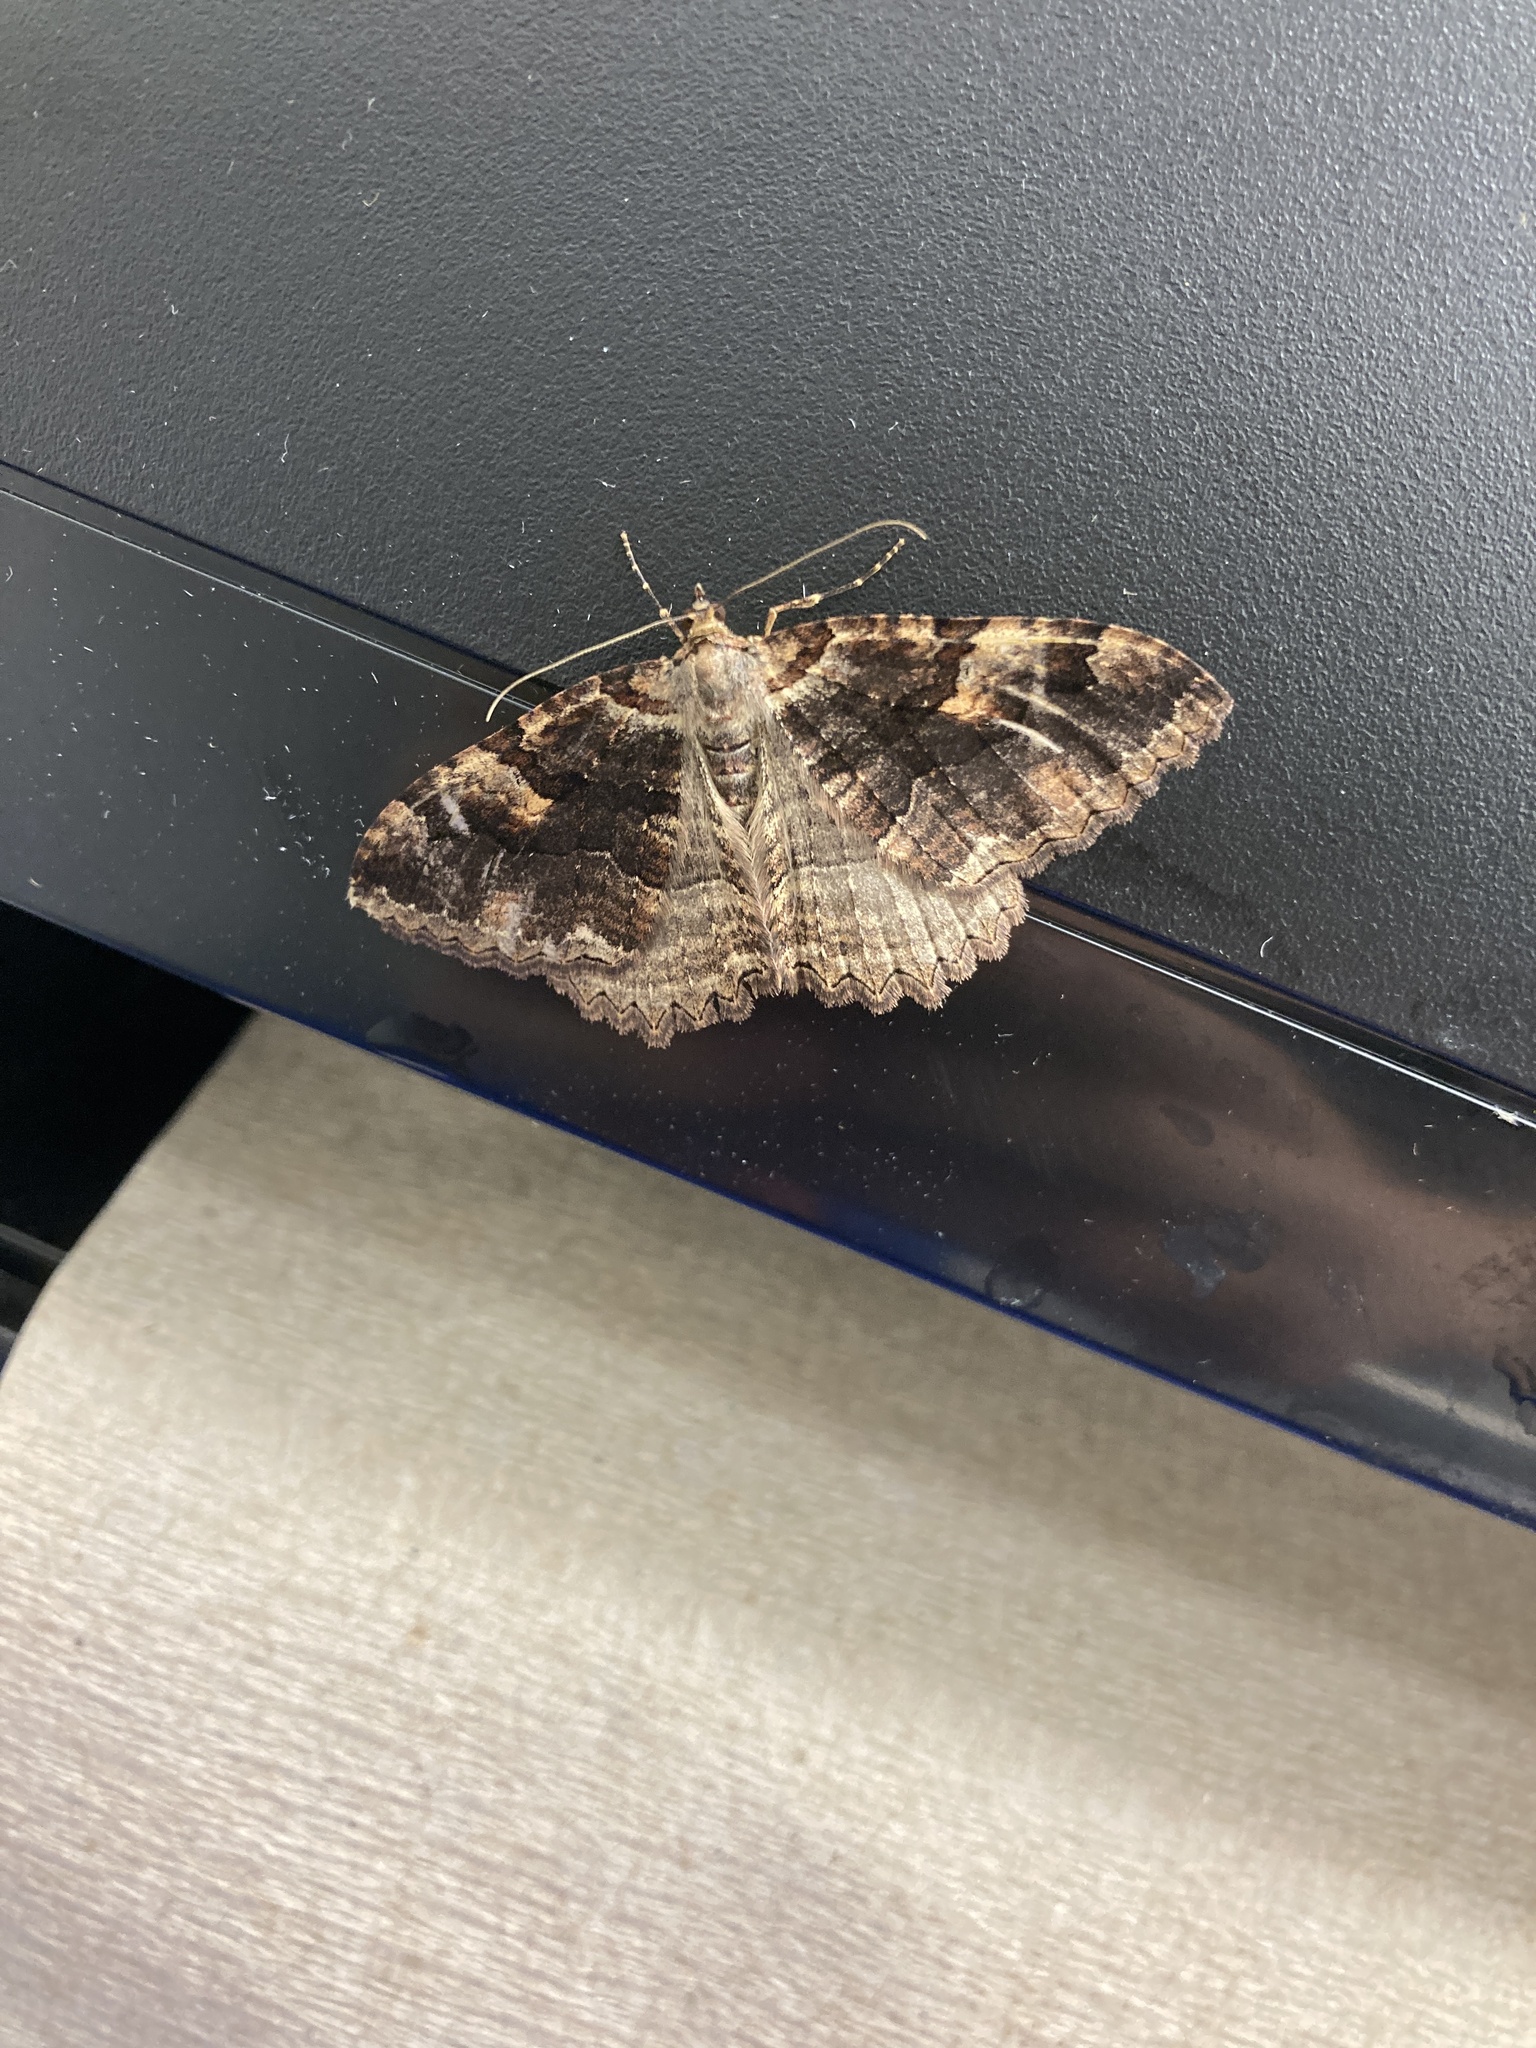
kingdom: Animalia
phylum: Arthropoda
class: Insecta
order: Lepidoptera
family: Geometridae
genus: Triphosa
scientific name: Triphosa haesitata
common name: Tissue moth
